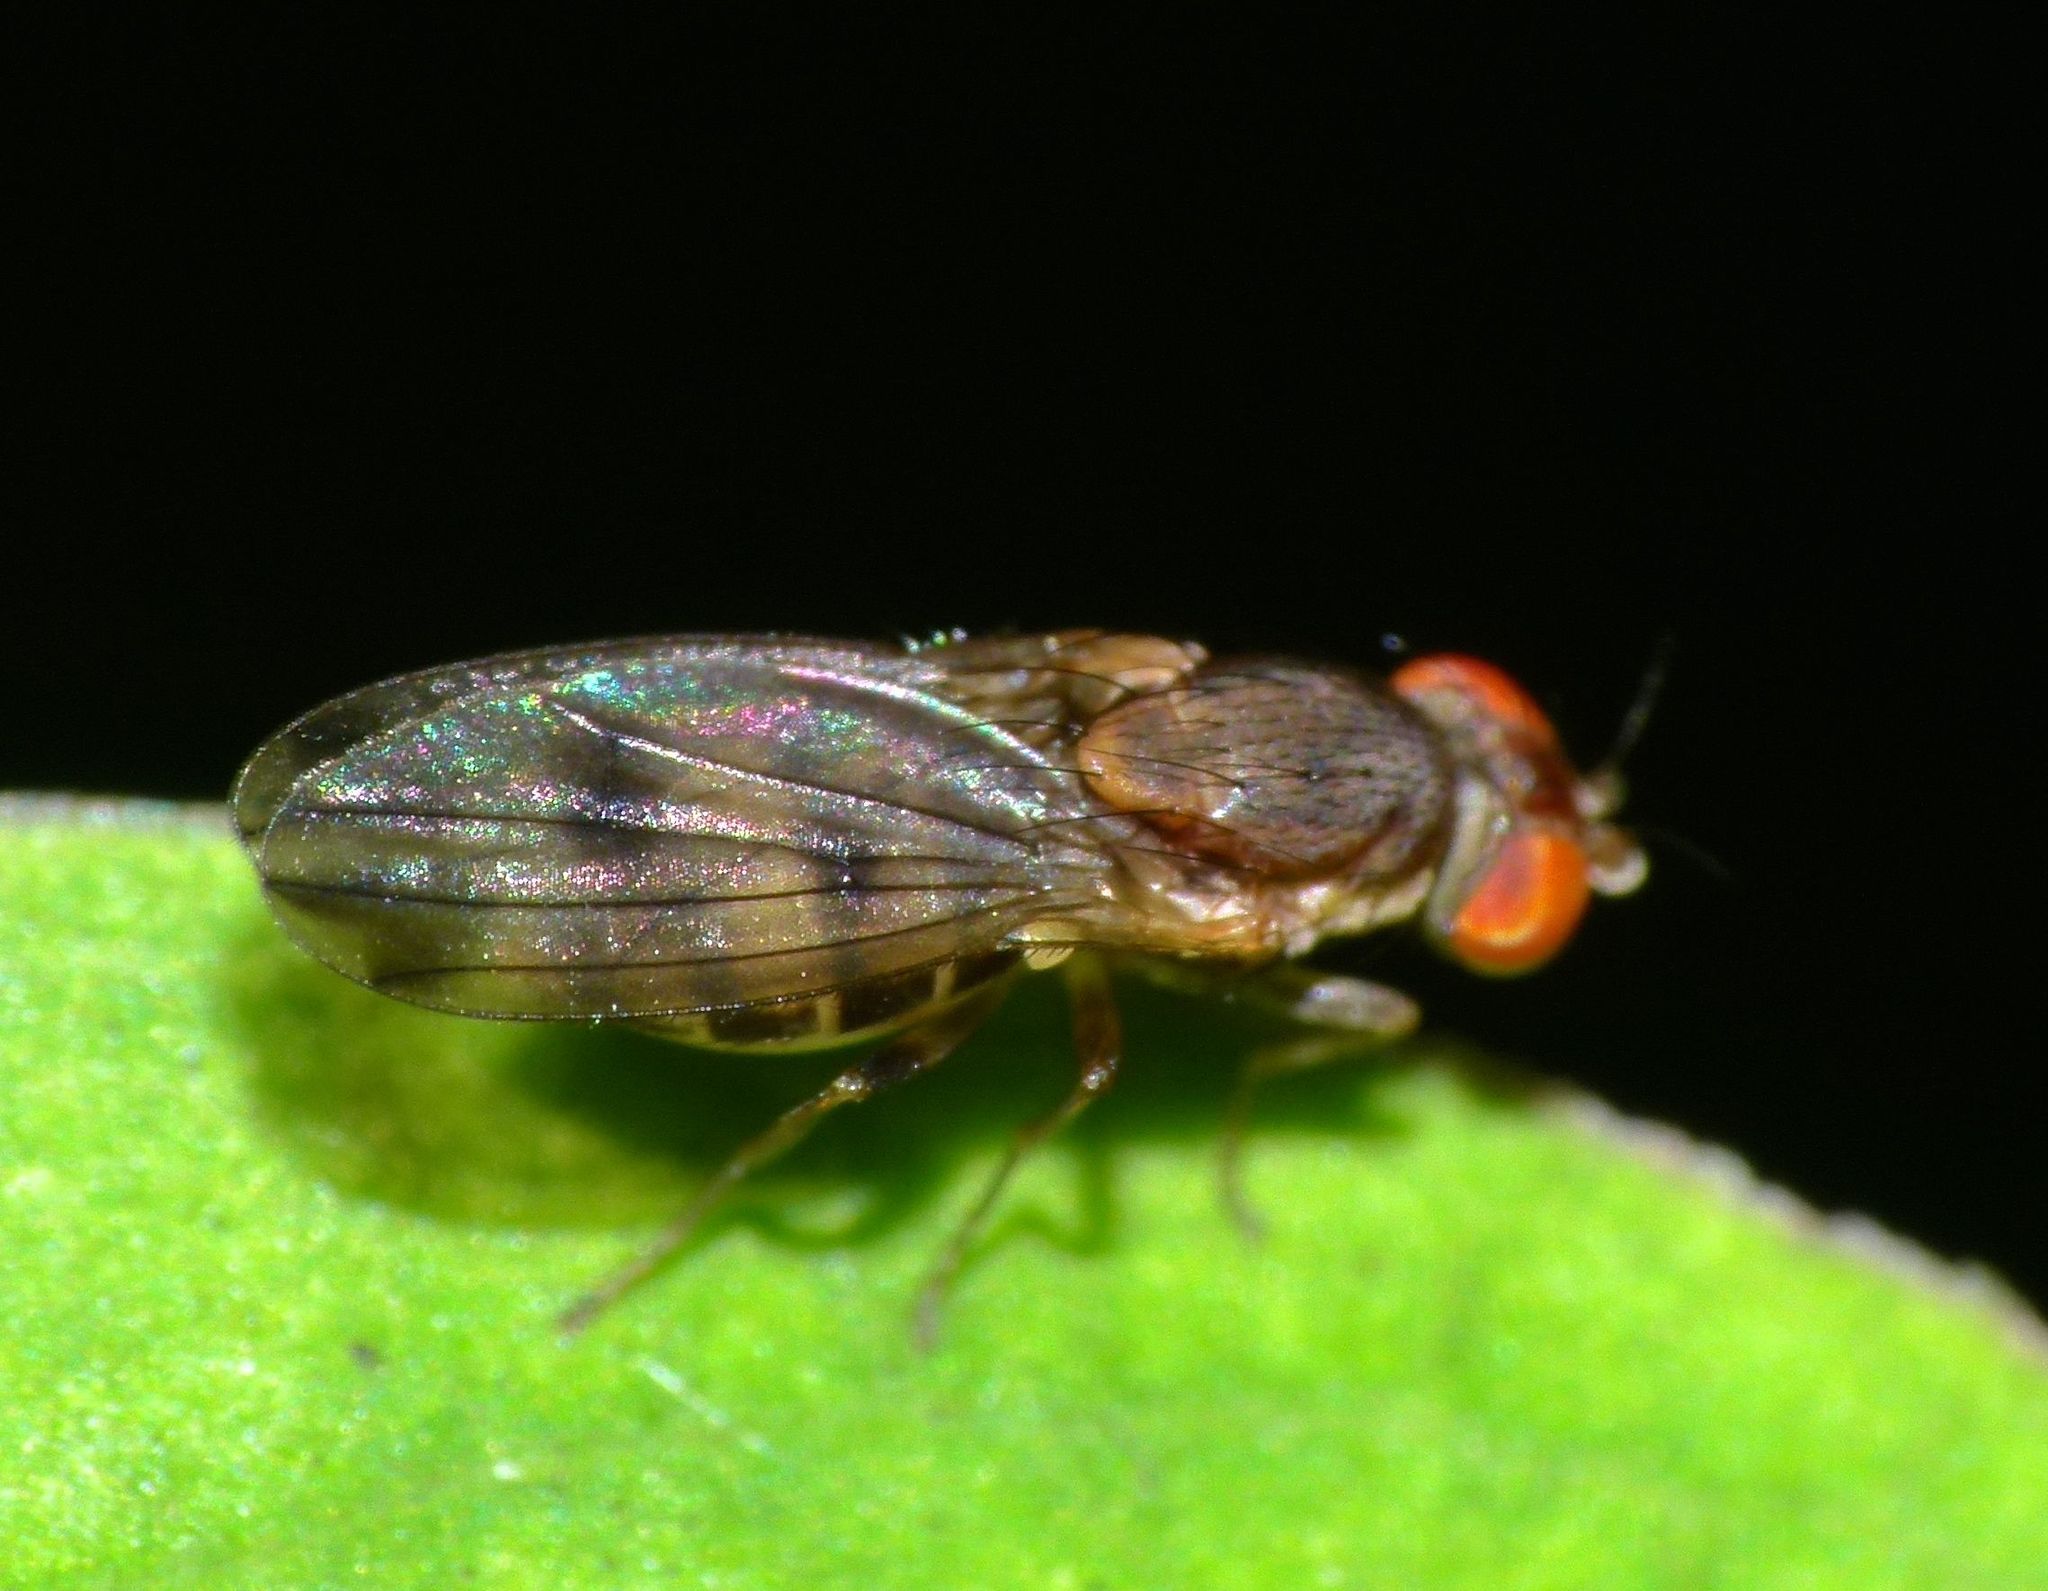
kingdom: Animalia
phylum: Arthropoda
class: Insecta
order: Diptera
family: Heleomyzidae
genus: Fenwickia
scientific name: Fenwickia hirsuta
